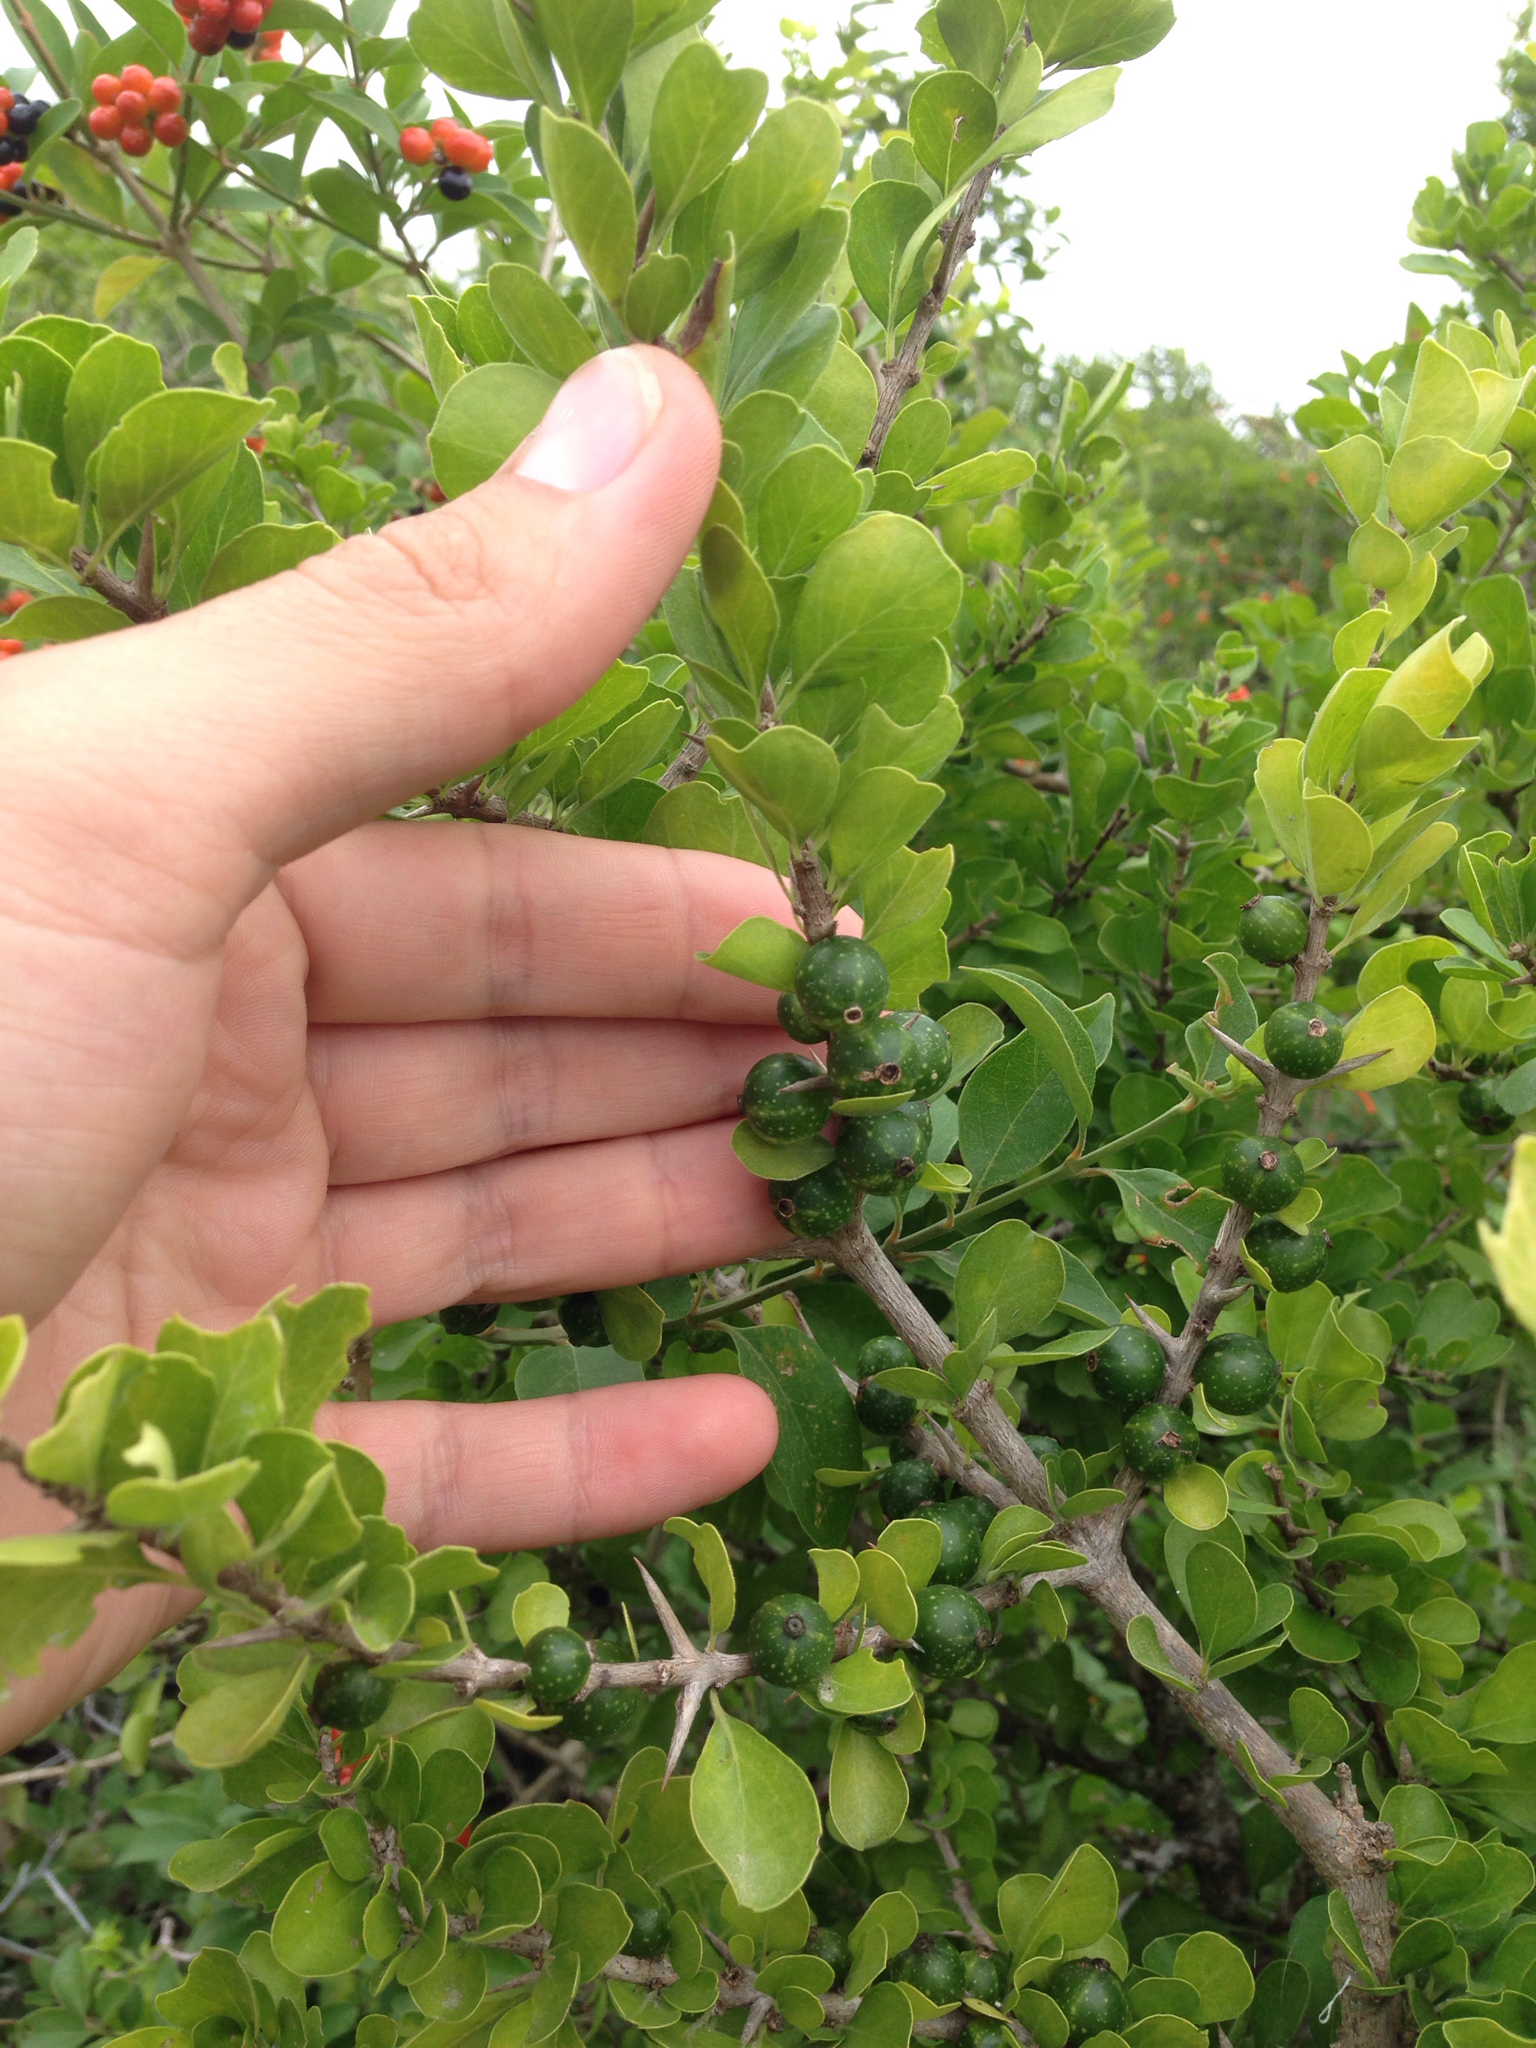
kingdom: Plantae
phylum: Tracheophyta
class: Magnoliopsida
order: Gentianales
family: Rubiaceae
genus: Randia
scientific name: Randia obcordata
